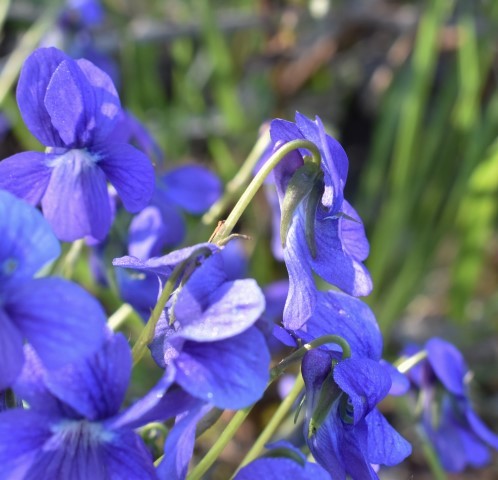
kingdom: Plantae
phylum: Tracheophyta
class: Magnoliopsida
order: Malpighiales
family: Violaceae
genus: Viola
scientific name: Viola adunca
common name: Sand violet
